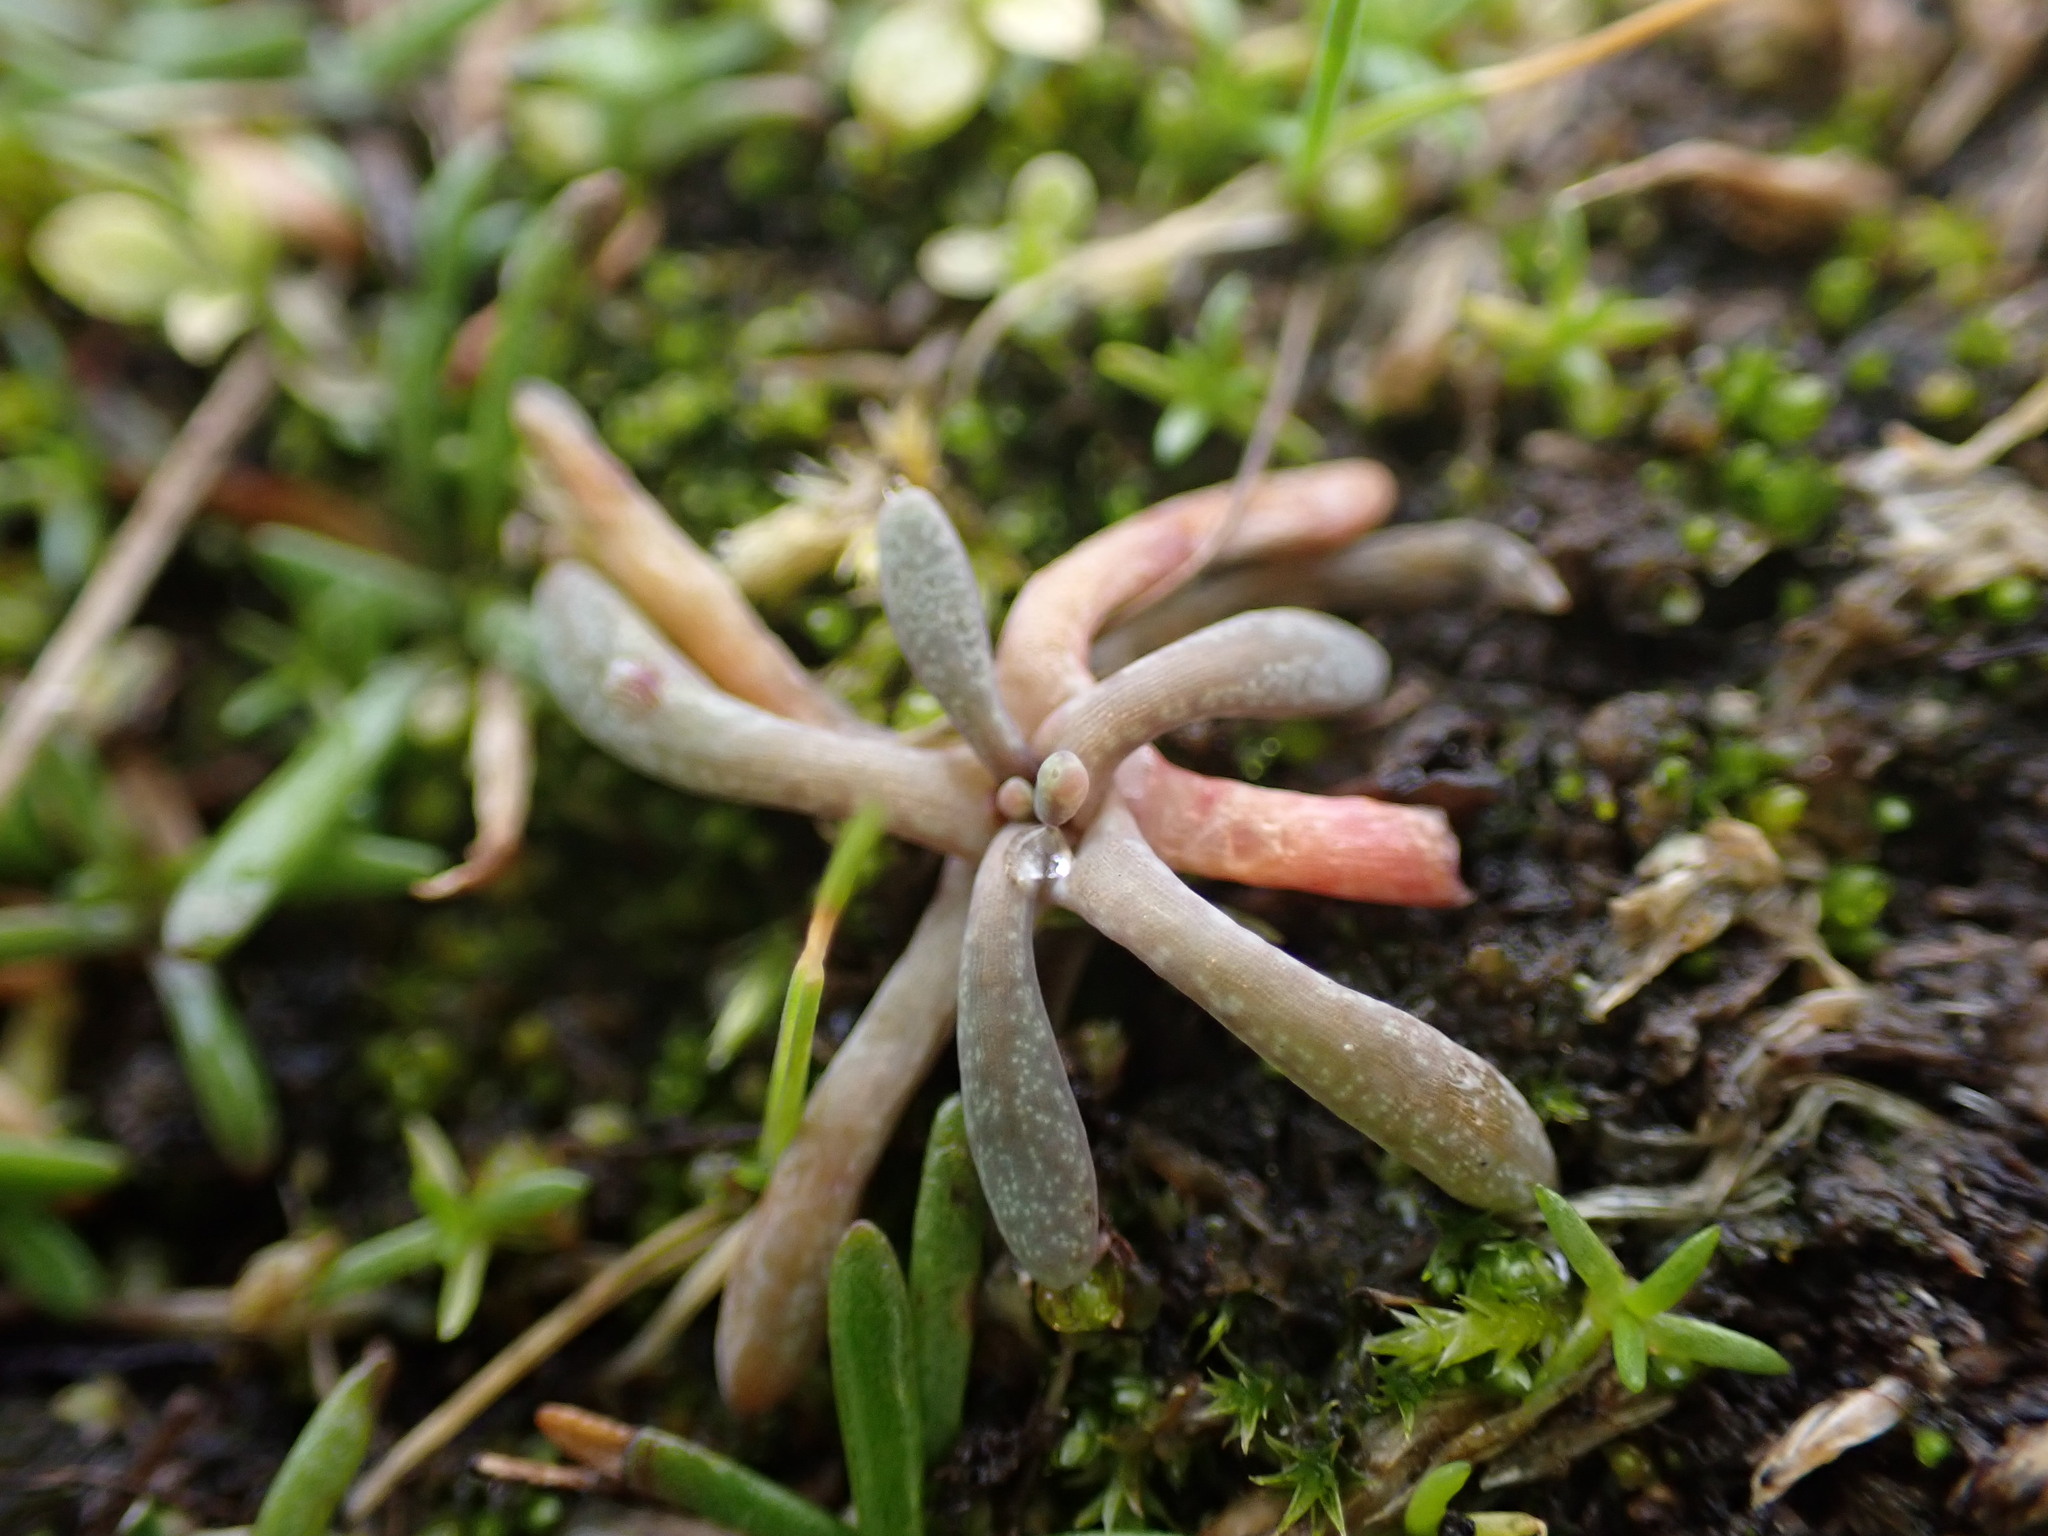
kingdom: Plantae
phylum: Tracheophyta
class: Magnoliopsida
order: Caryophyllales
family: Montiaceae
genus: Claytonia
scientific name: Claytonia exigua
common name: Pale spring beauty
